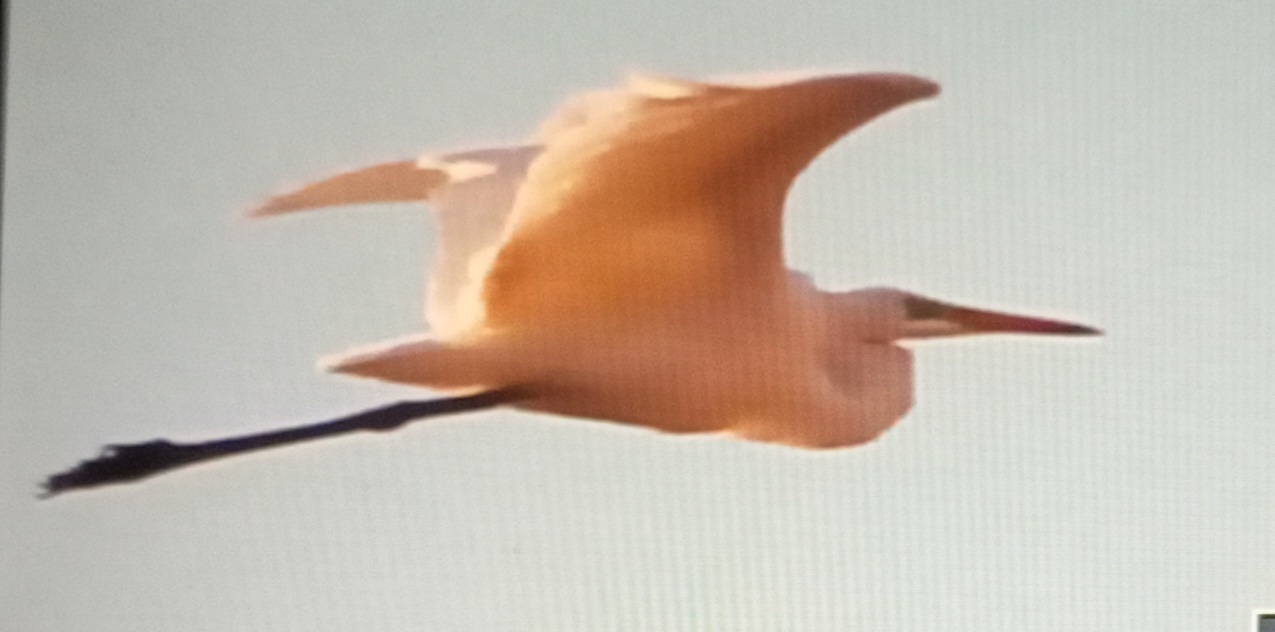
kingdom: Animalia
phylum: Chordata
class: Aves
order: Pelecaniformes
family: Ardeidae
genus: Ardea
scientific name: Ardea alba
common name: Great egret
